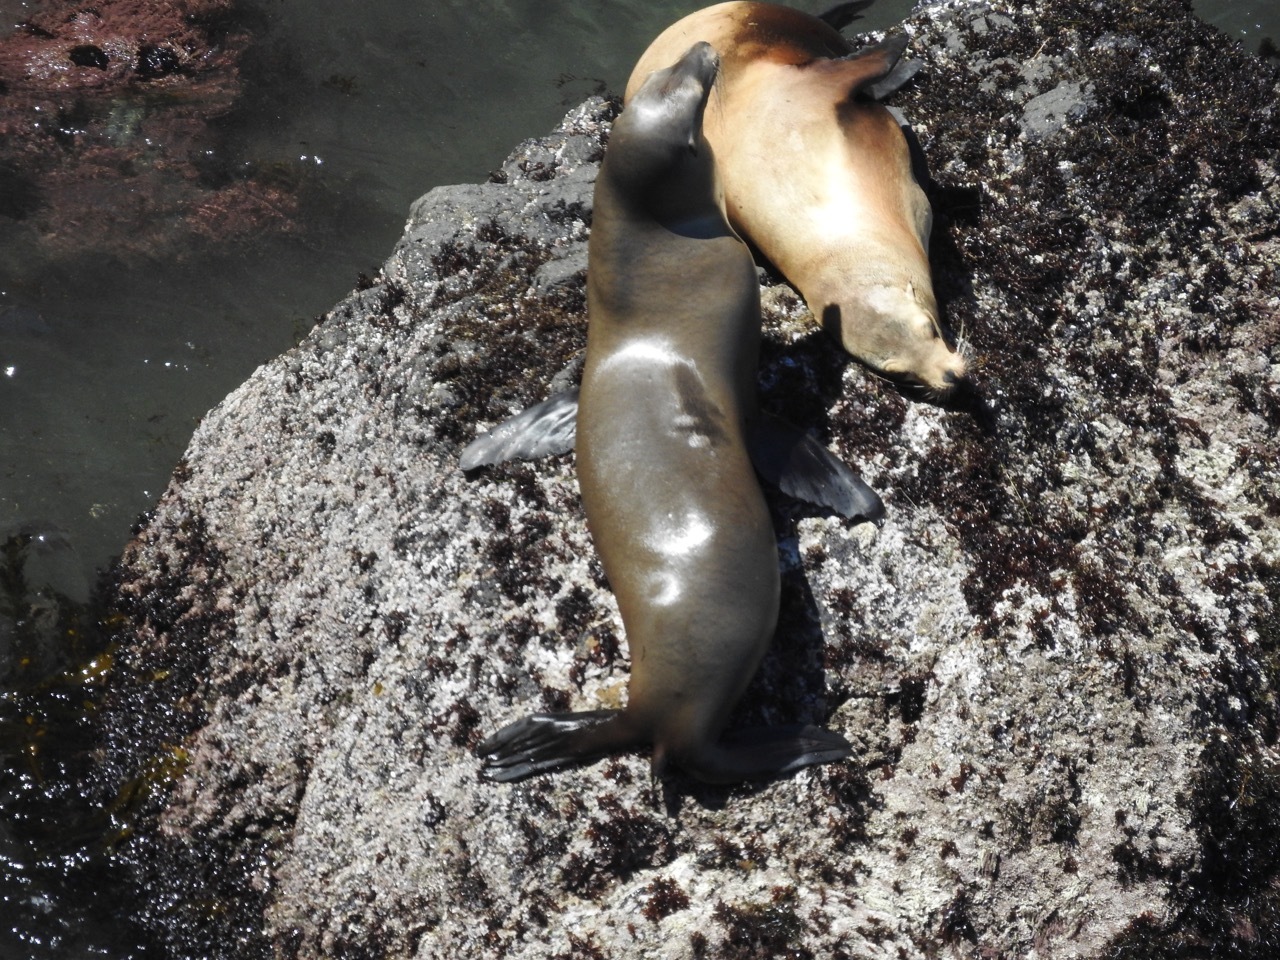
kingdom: Animalia
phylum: Chordata
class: Mammalia
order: Carnivora
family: Otariidae
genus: Zalophus
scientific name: Zalophus californianus
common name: California sea lion
